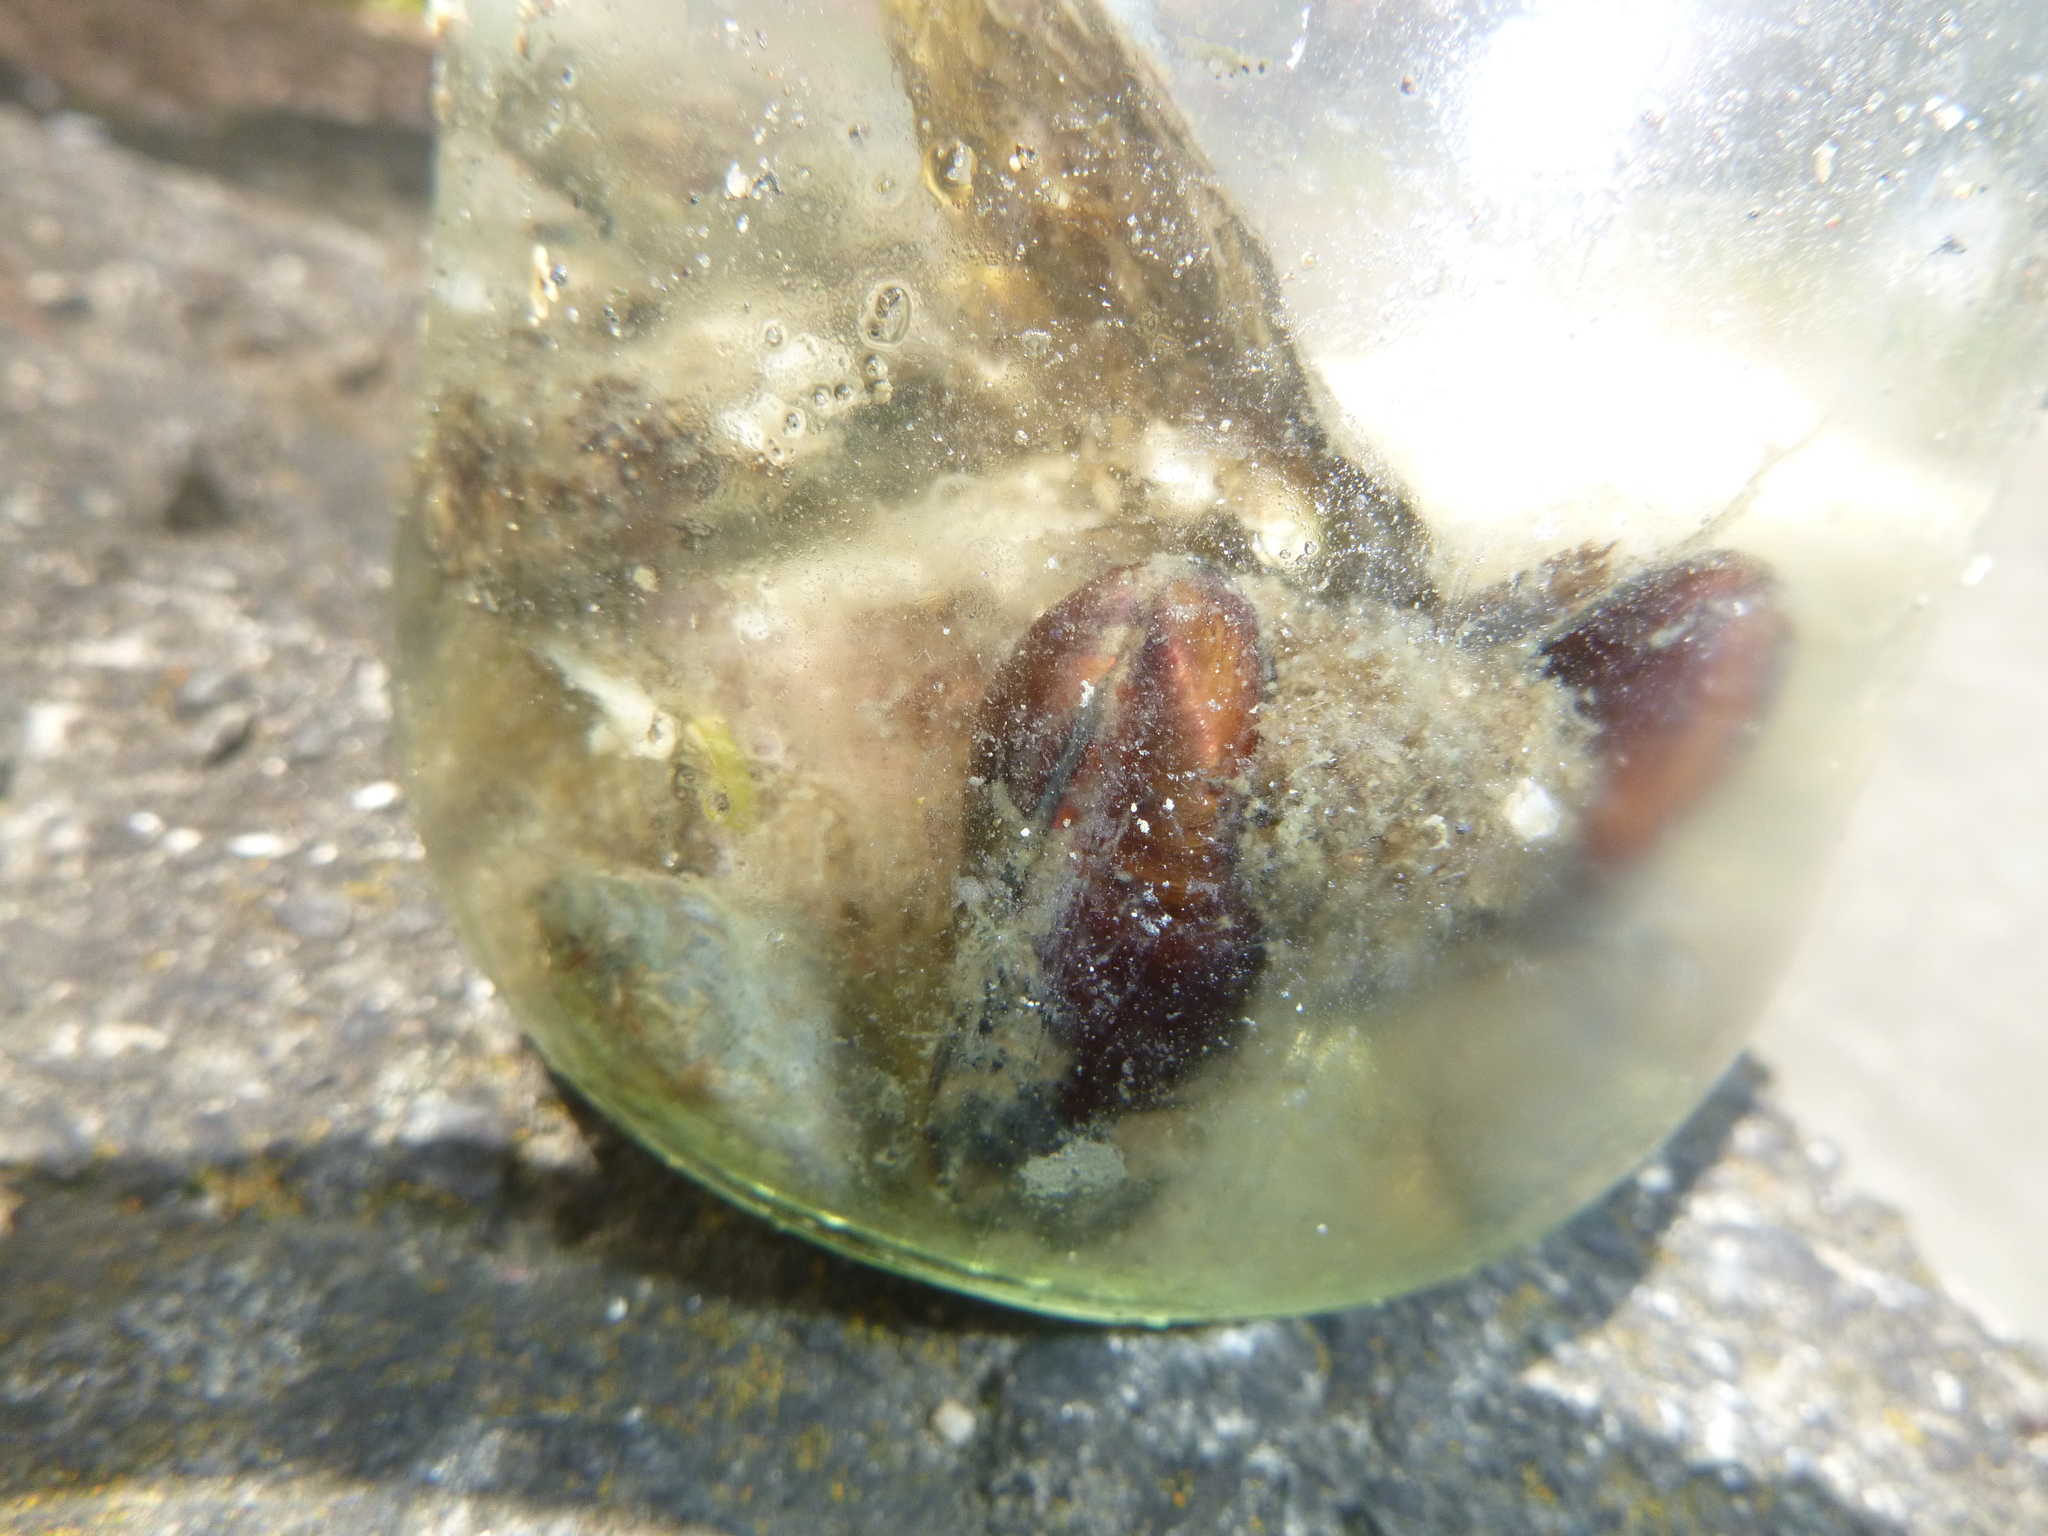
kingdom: Animalia
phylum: Mollusca
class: Bivalvia
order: Mytilida
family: Mytilidae
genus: Xenostrobus
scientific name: Xenostrobus securis
